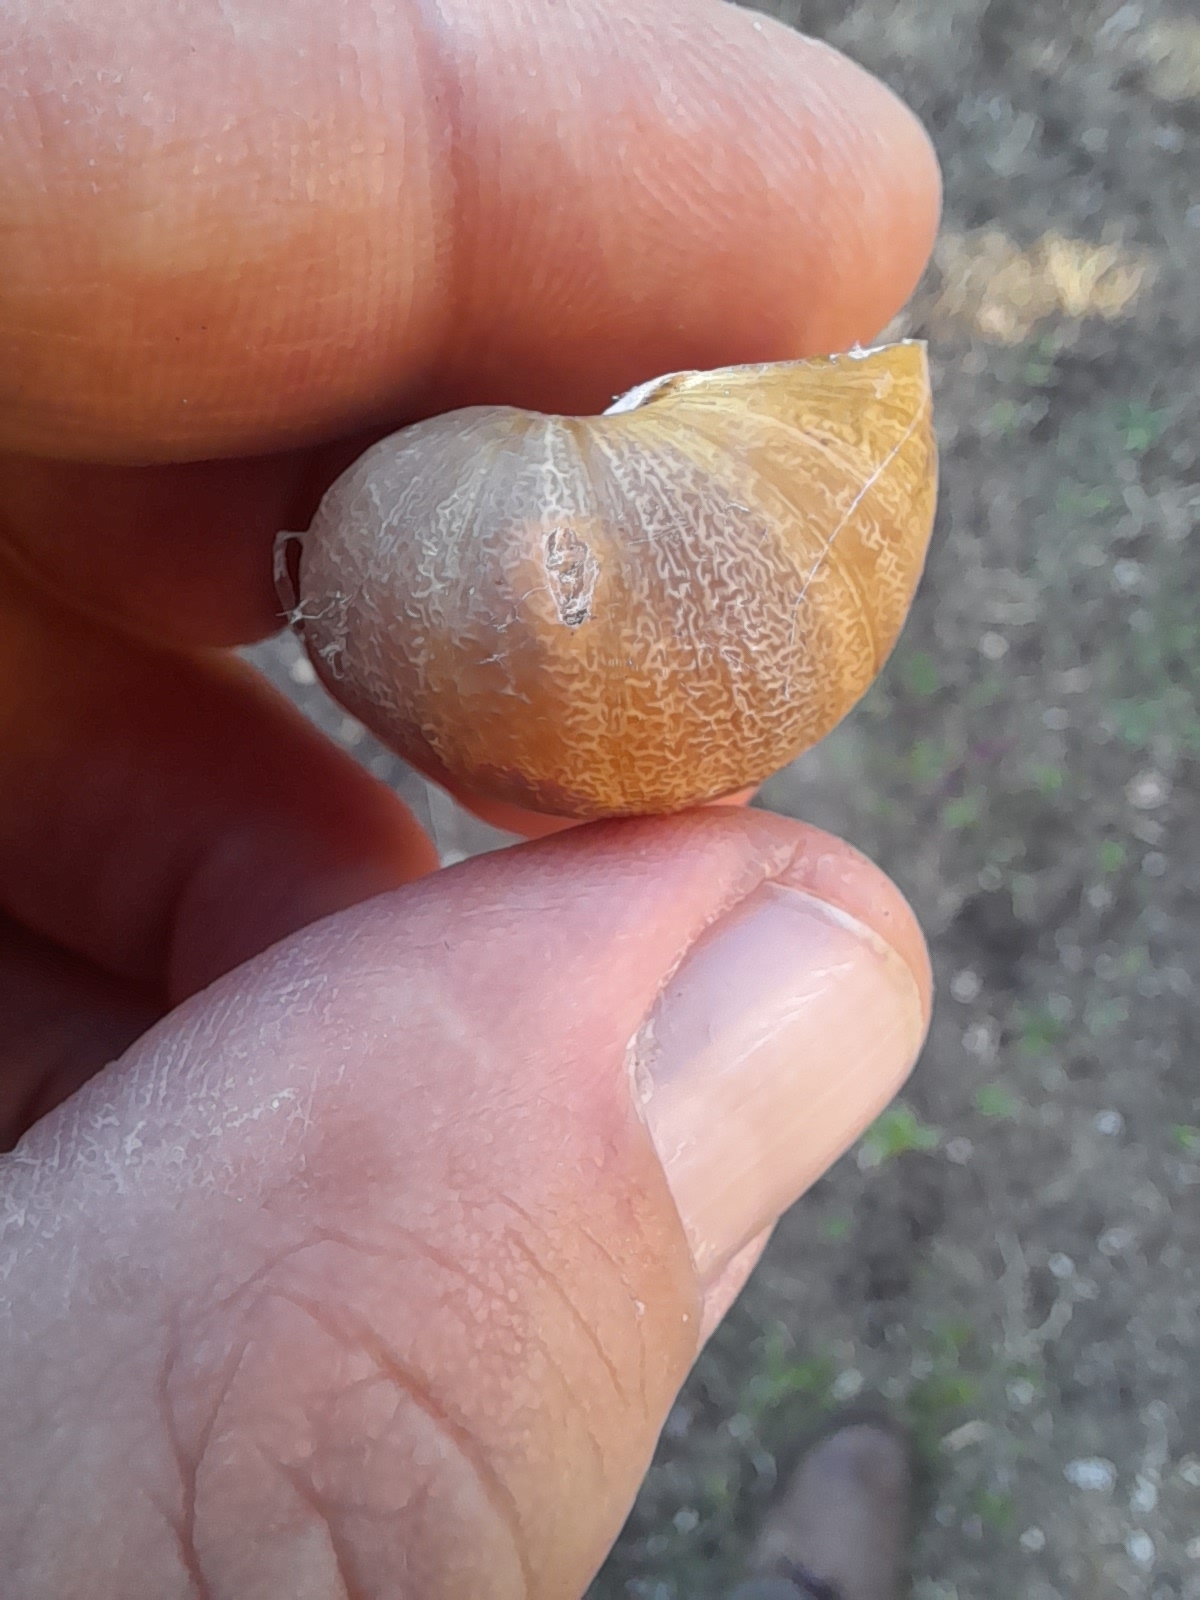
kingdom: Animalia
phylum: Mollusca
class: Gastropoda
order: Stylommatophora
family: Helicidae
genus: Cornu
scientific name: Cornu aspersum
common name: Brown garden snail
